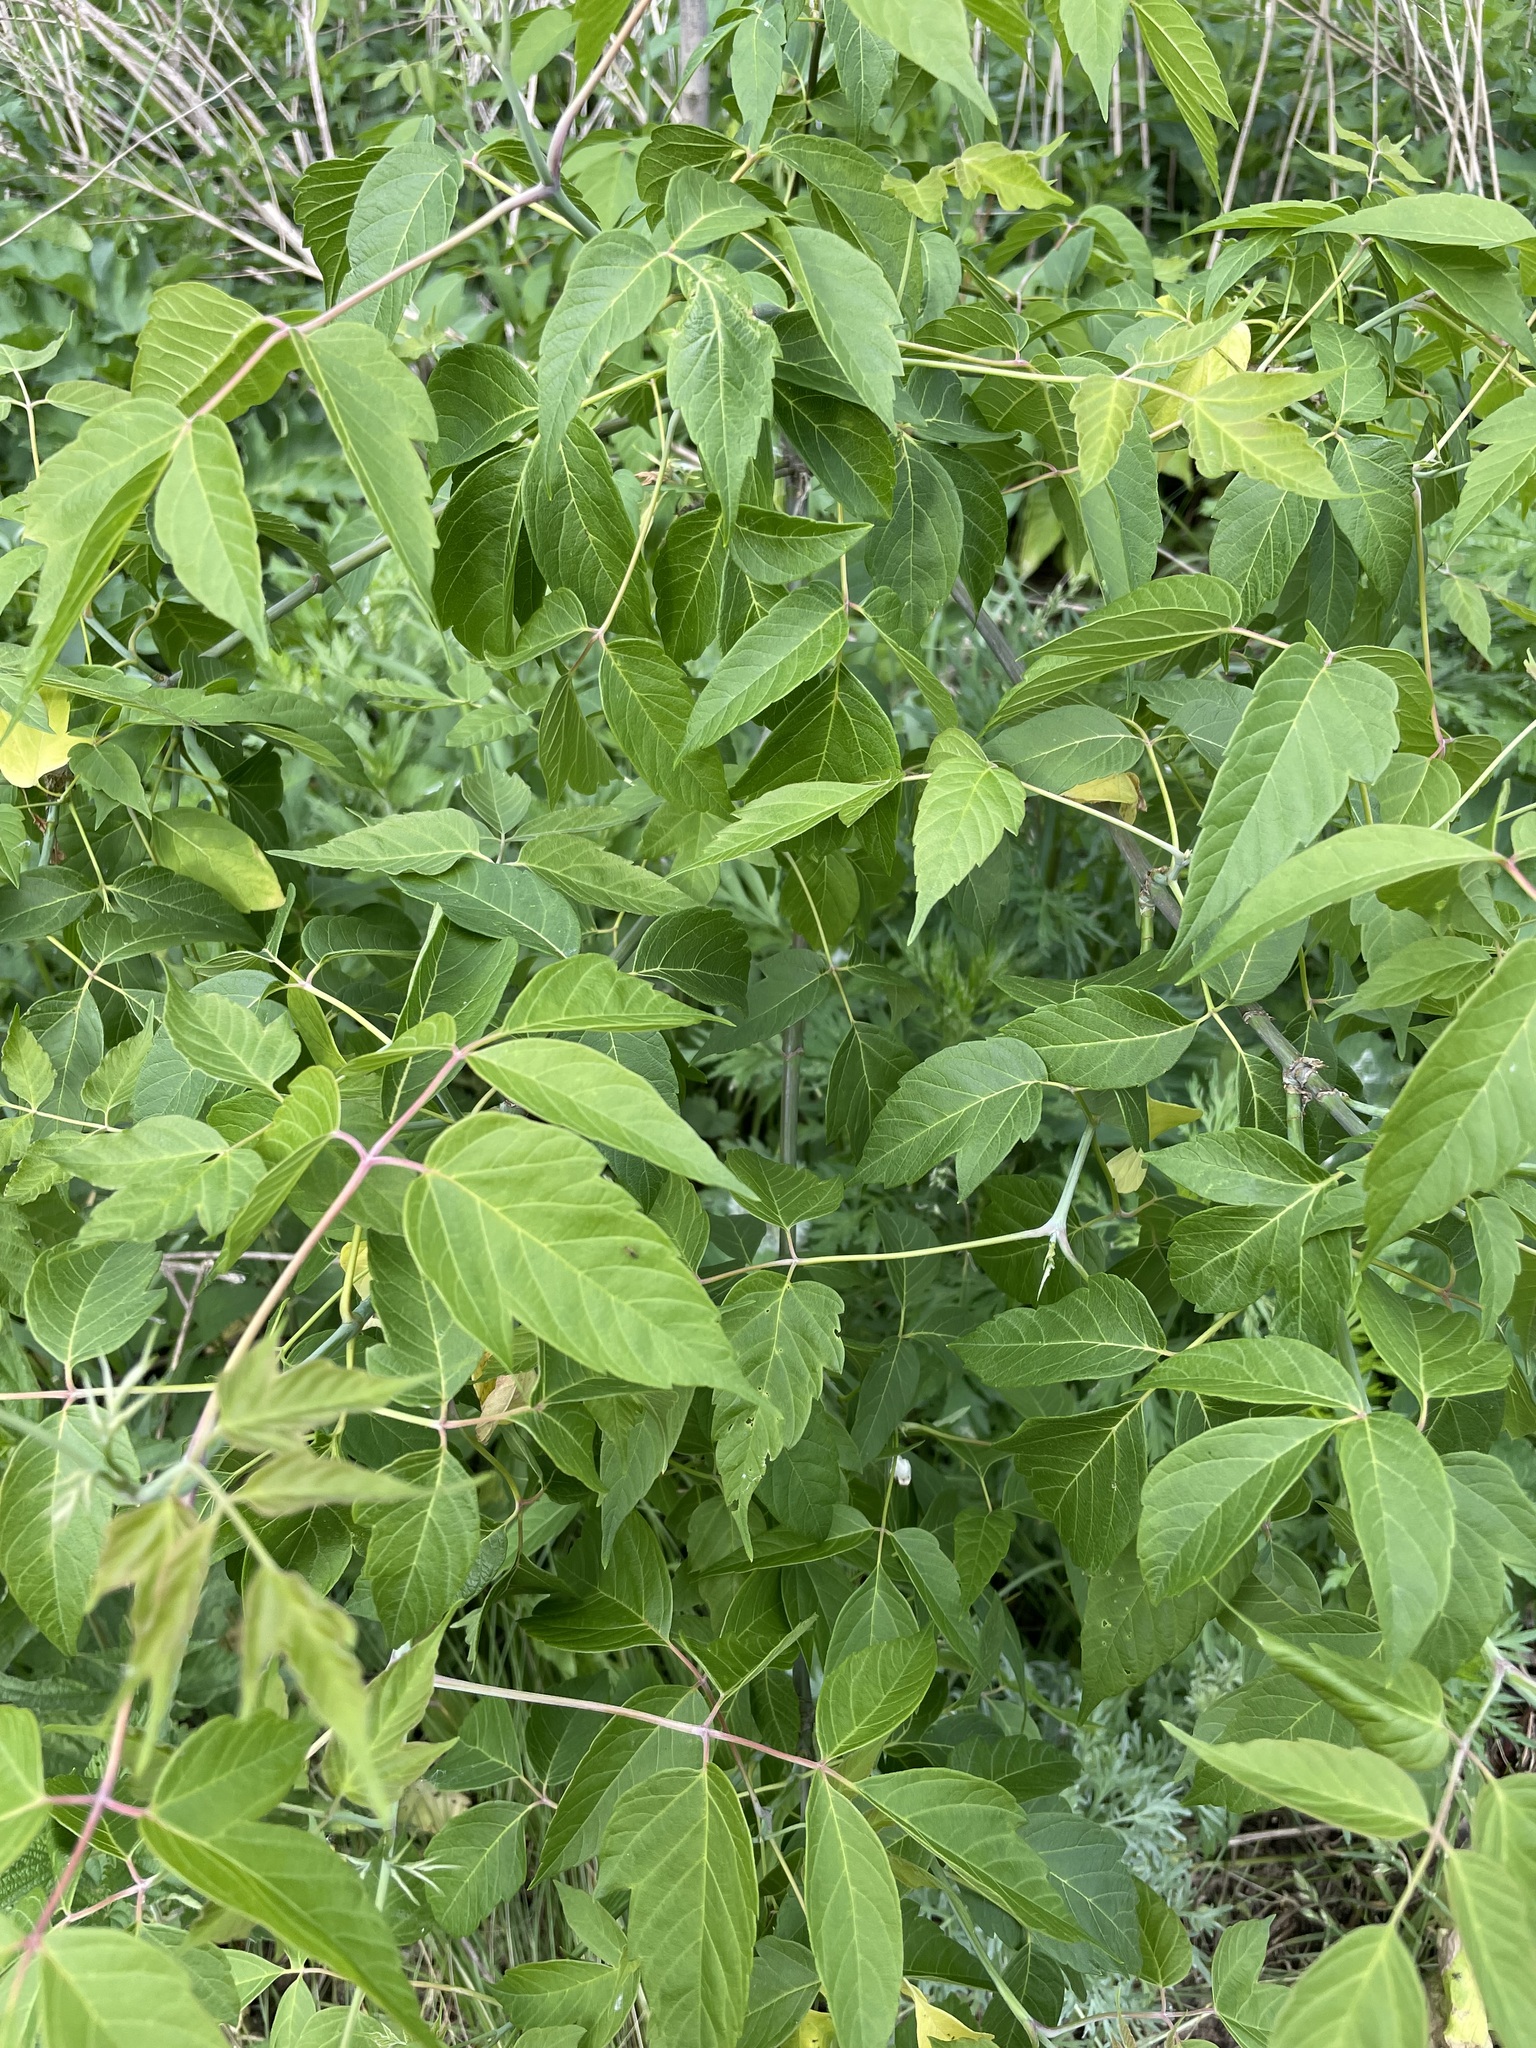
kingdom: Plantae
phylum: Tracheophyta
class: Magnoliopsida
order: Sapindales
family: Sapindaceae
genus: Acer
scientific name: Acer negundo
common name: Ashleaf maple
